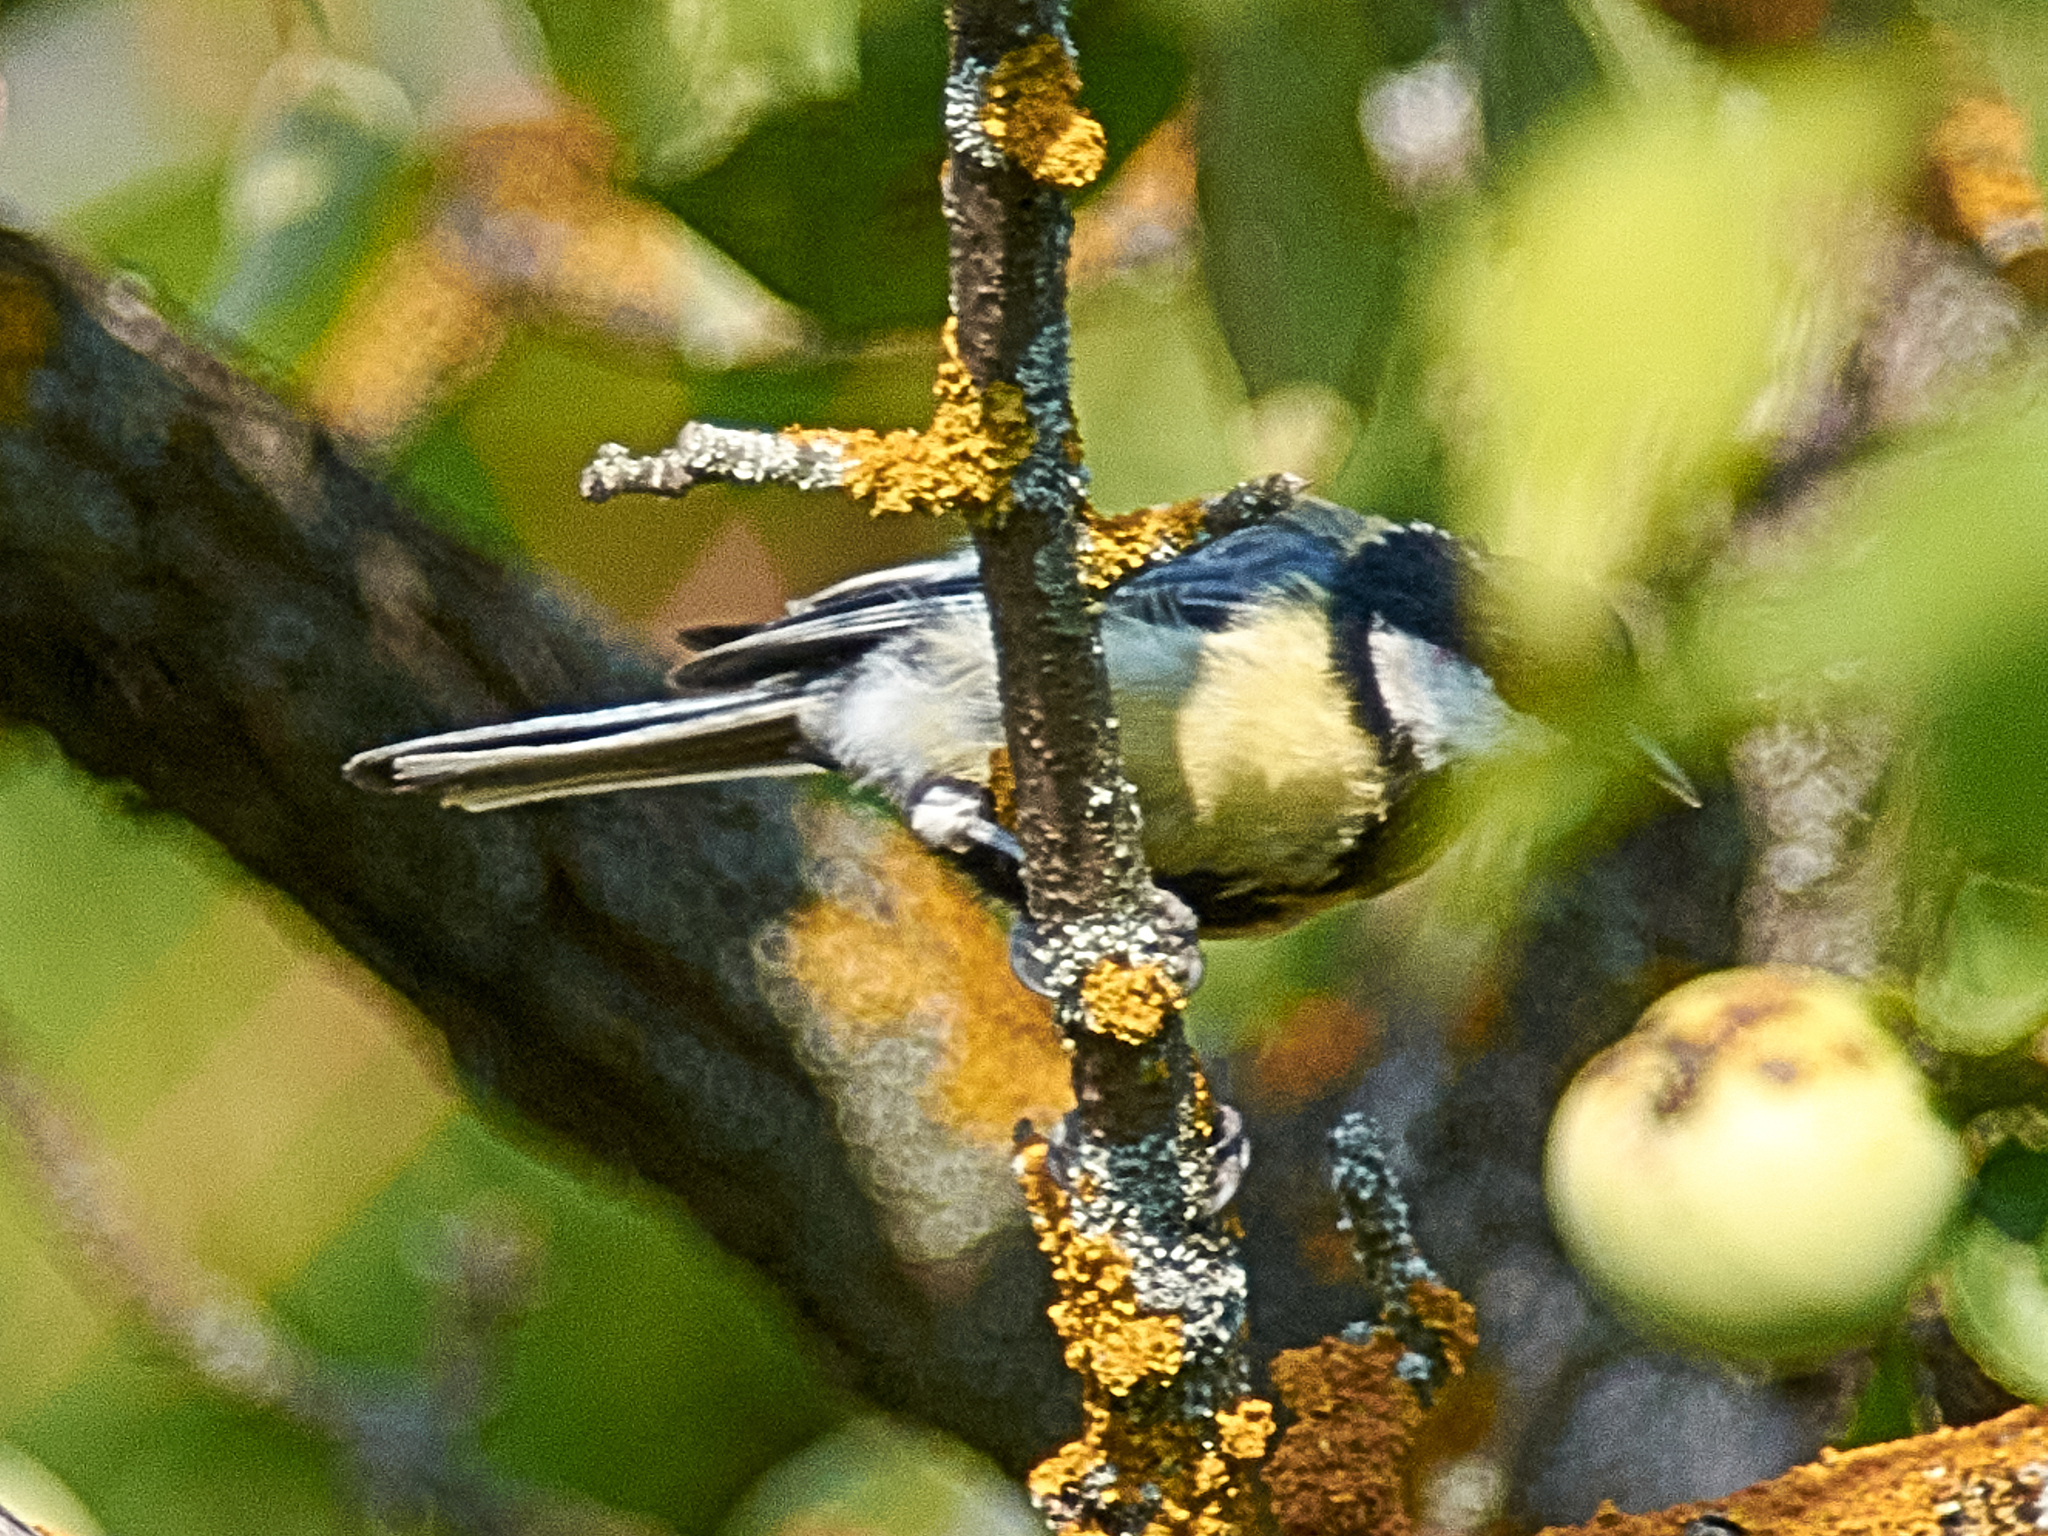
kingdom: Animalia
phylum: Chordata
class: Aves
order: Passeriformes
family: Paridae
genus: Parus
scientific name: Parus major
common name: Great tit
